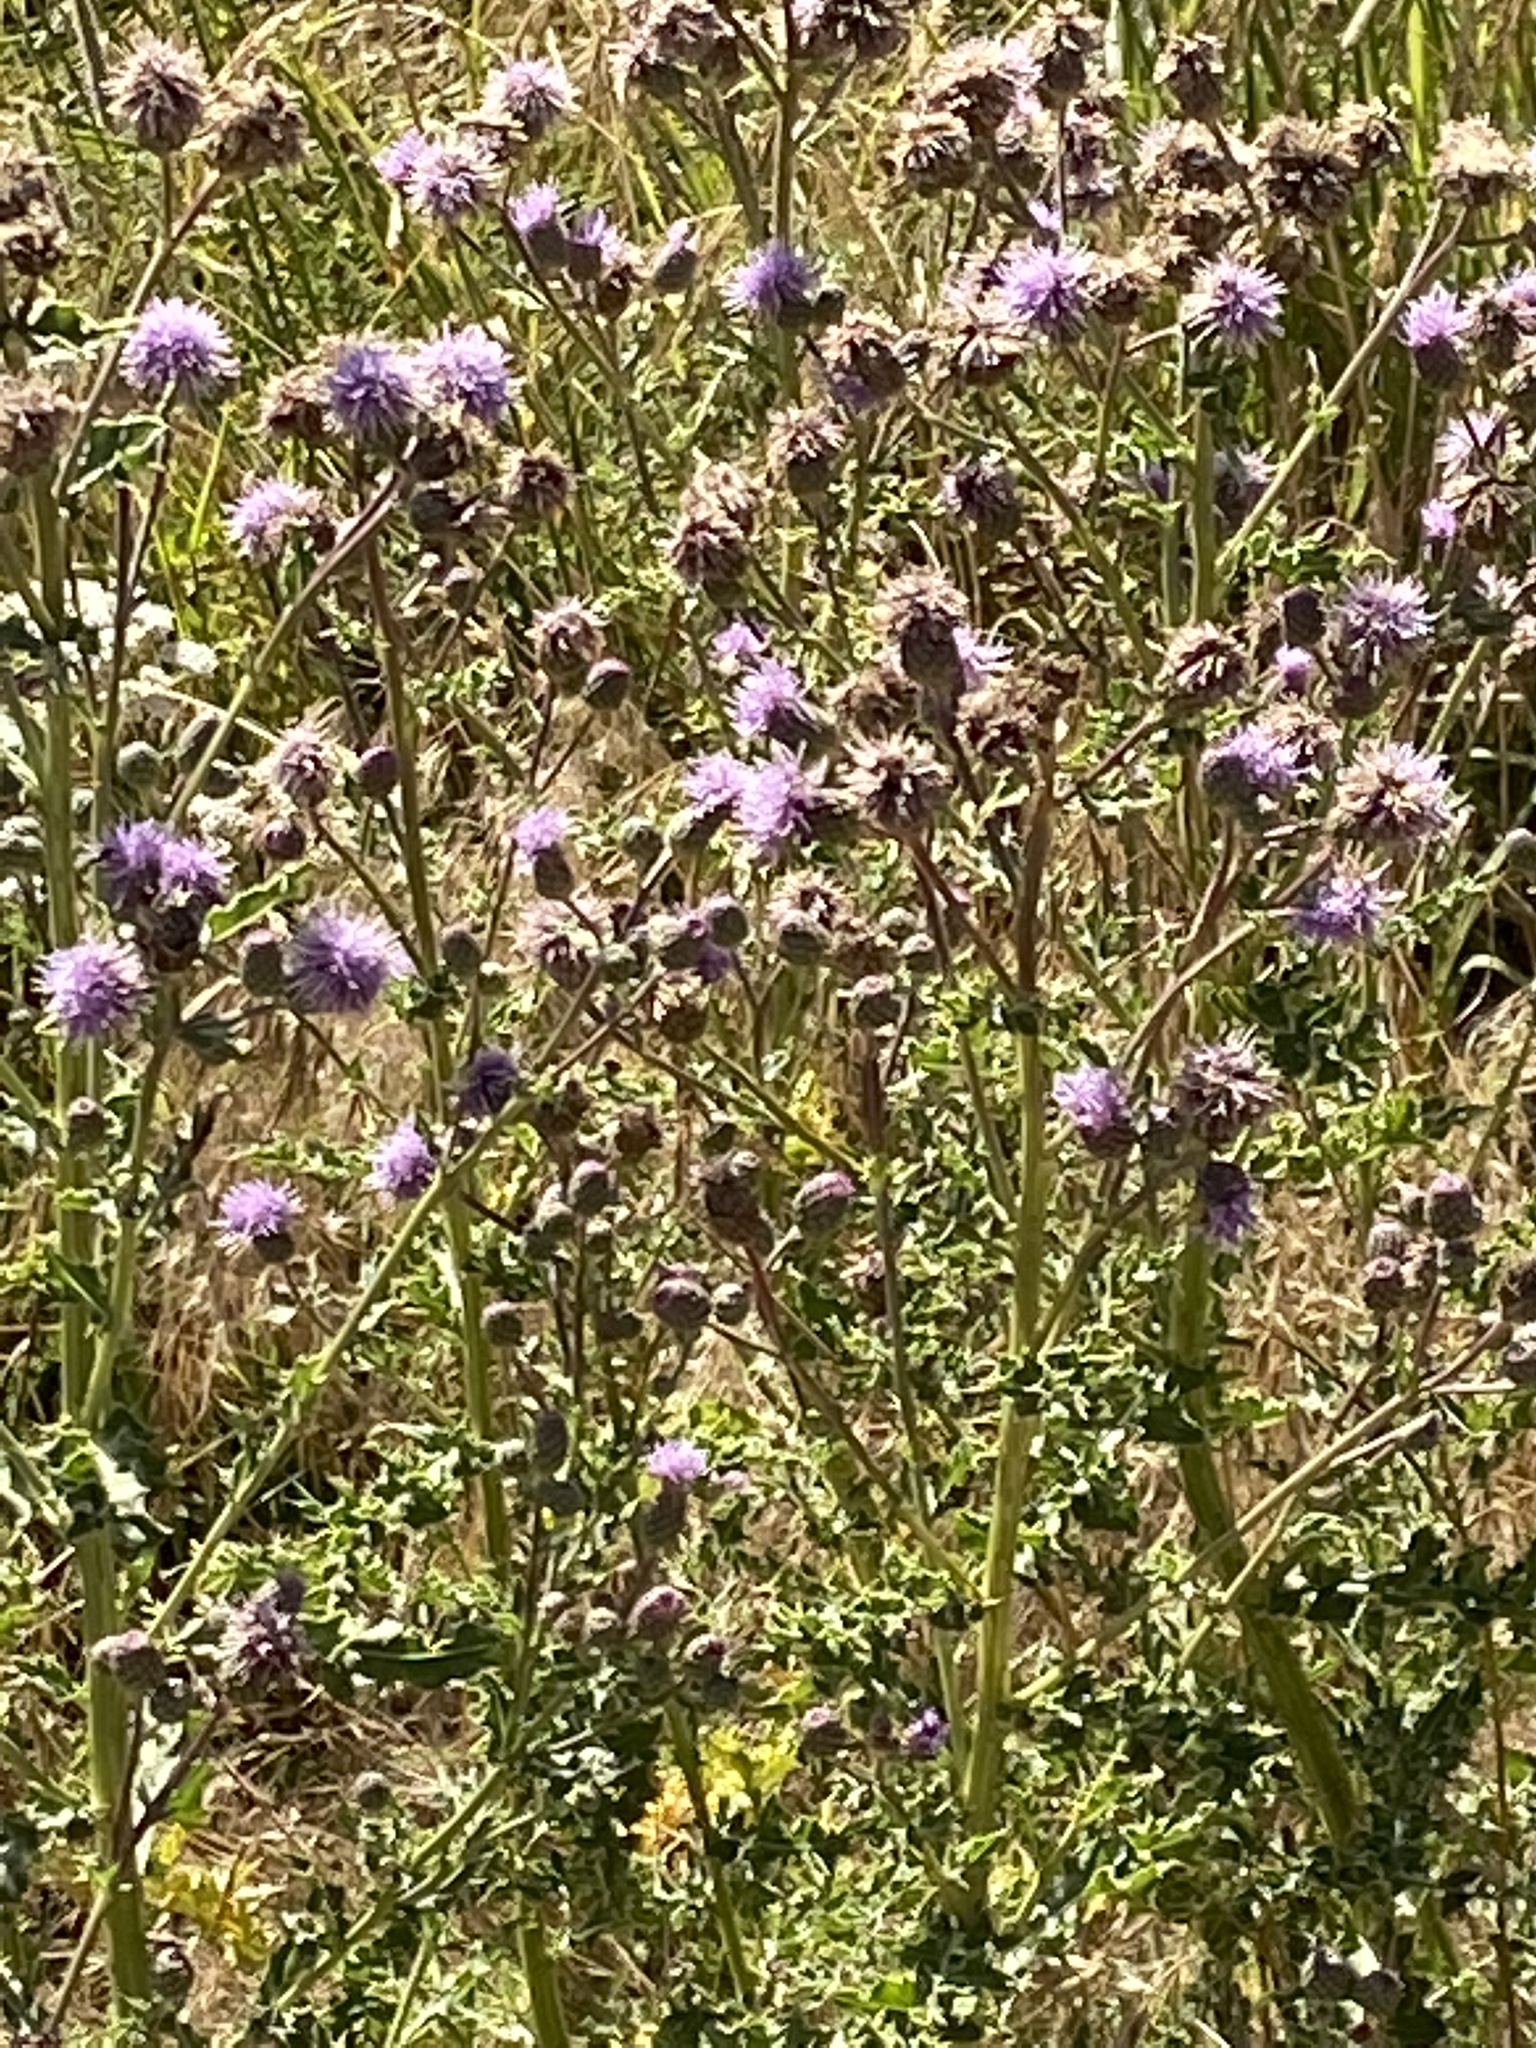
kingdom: Plantae
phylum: Tracheophyta
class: Magnoliopsida
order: Asterales
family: Asteraceae
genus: Cirsium
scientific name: Cirsium arvense
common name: Creeping thistle
